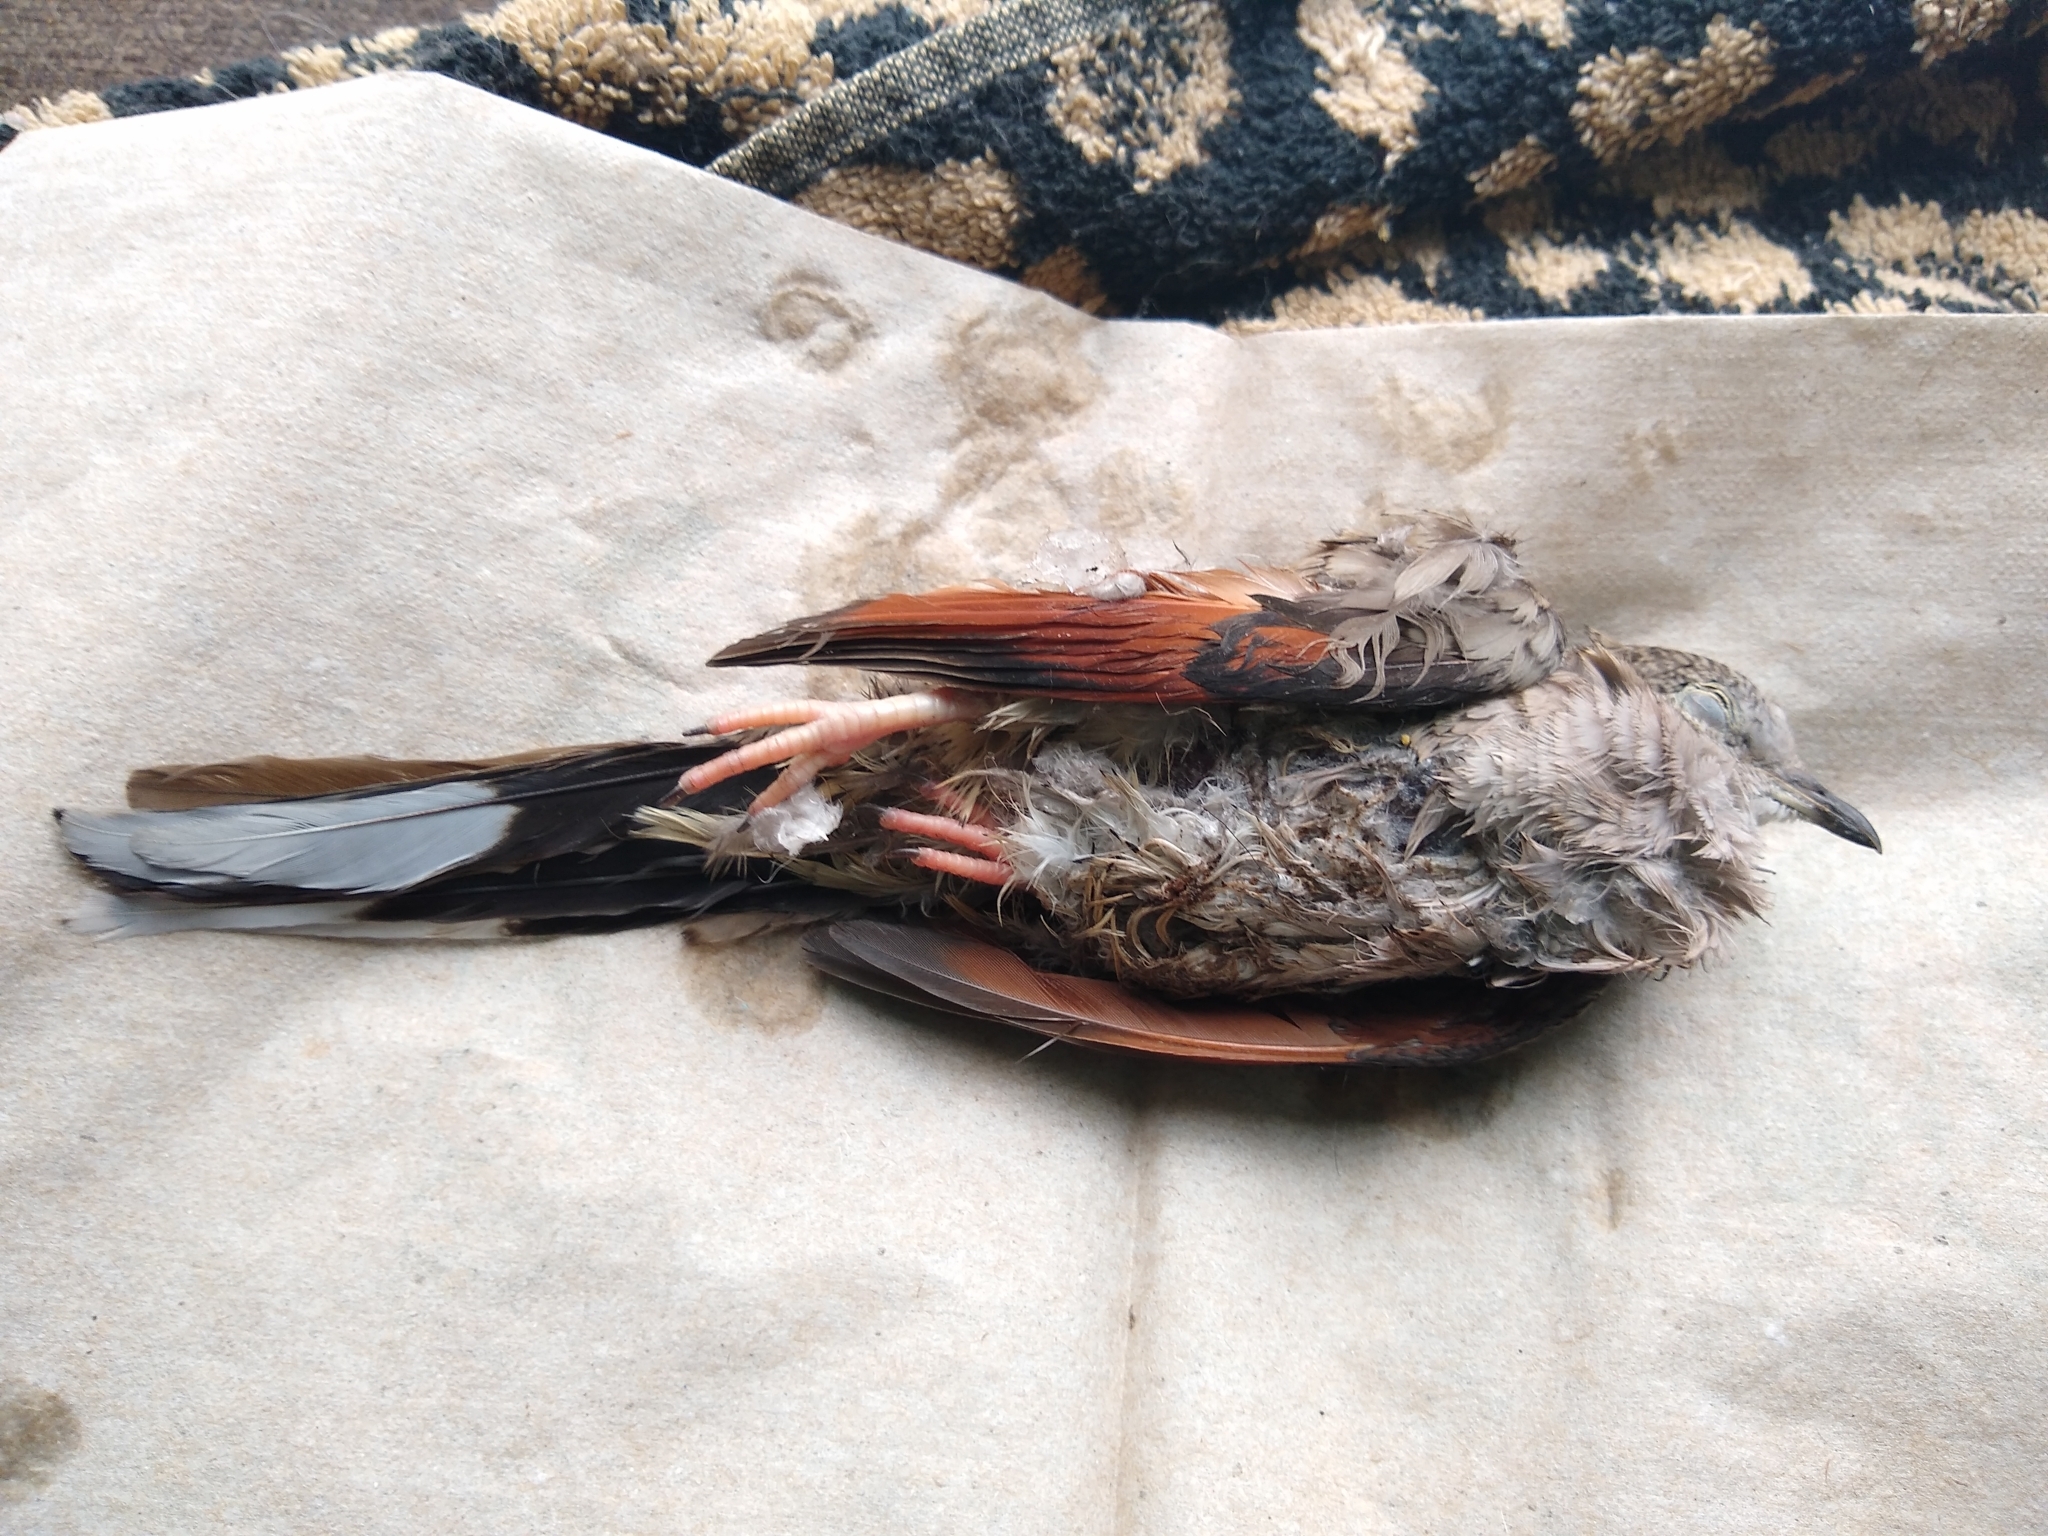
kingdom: Animalia
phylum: Chordata
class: Aves
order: Columbiformes
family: Columbidae
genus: Columbina
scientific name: Columbina inca
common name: Inca dove
